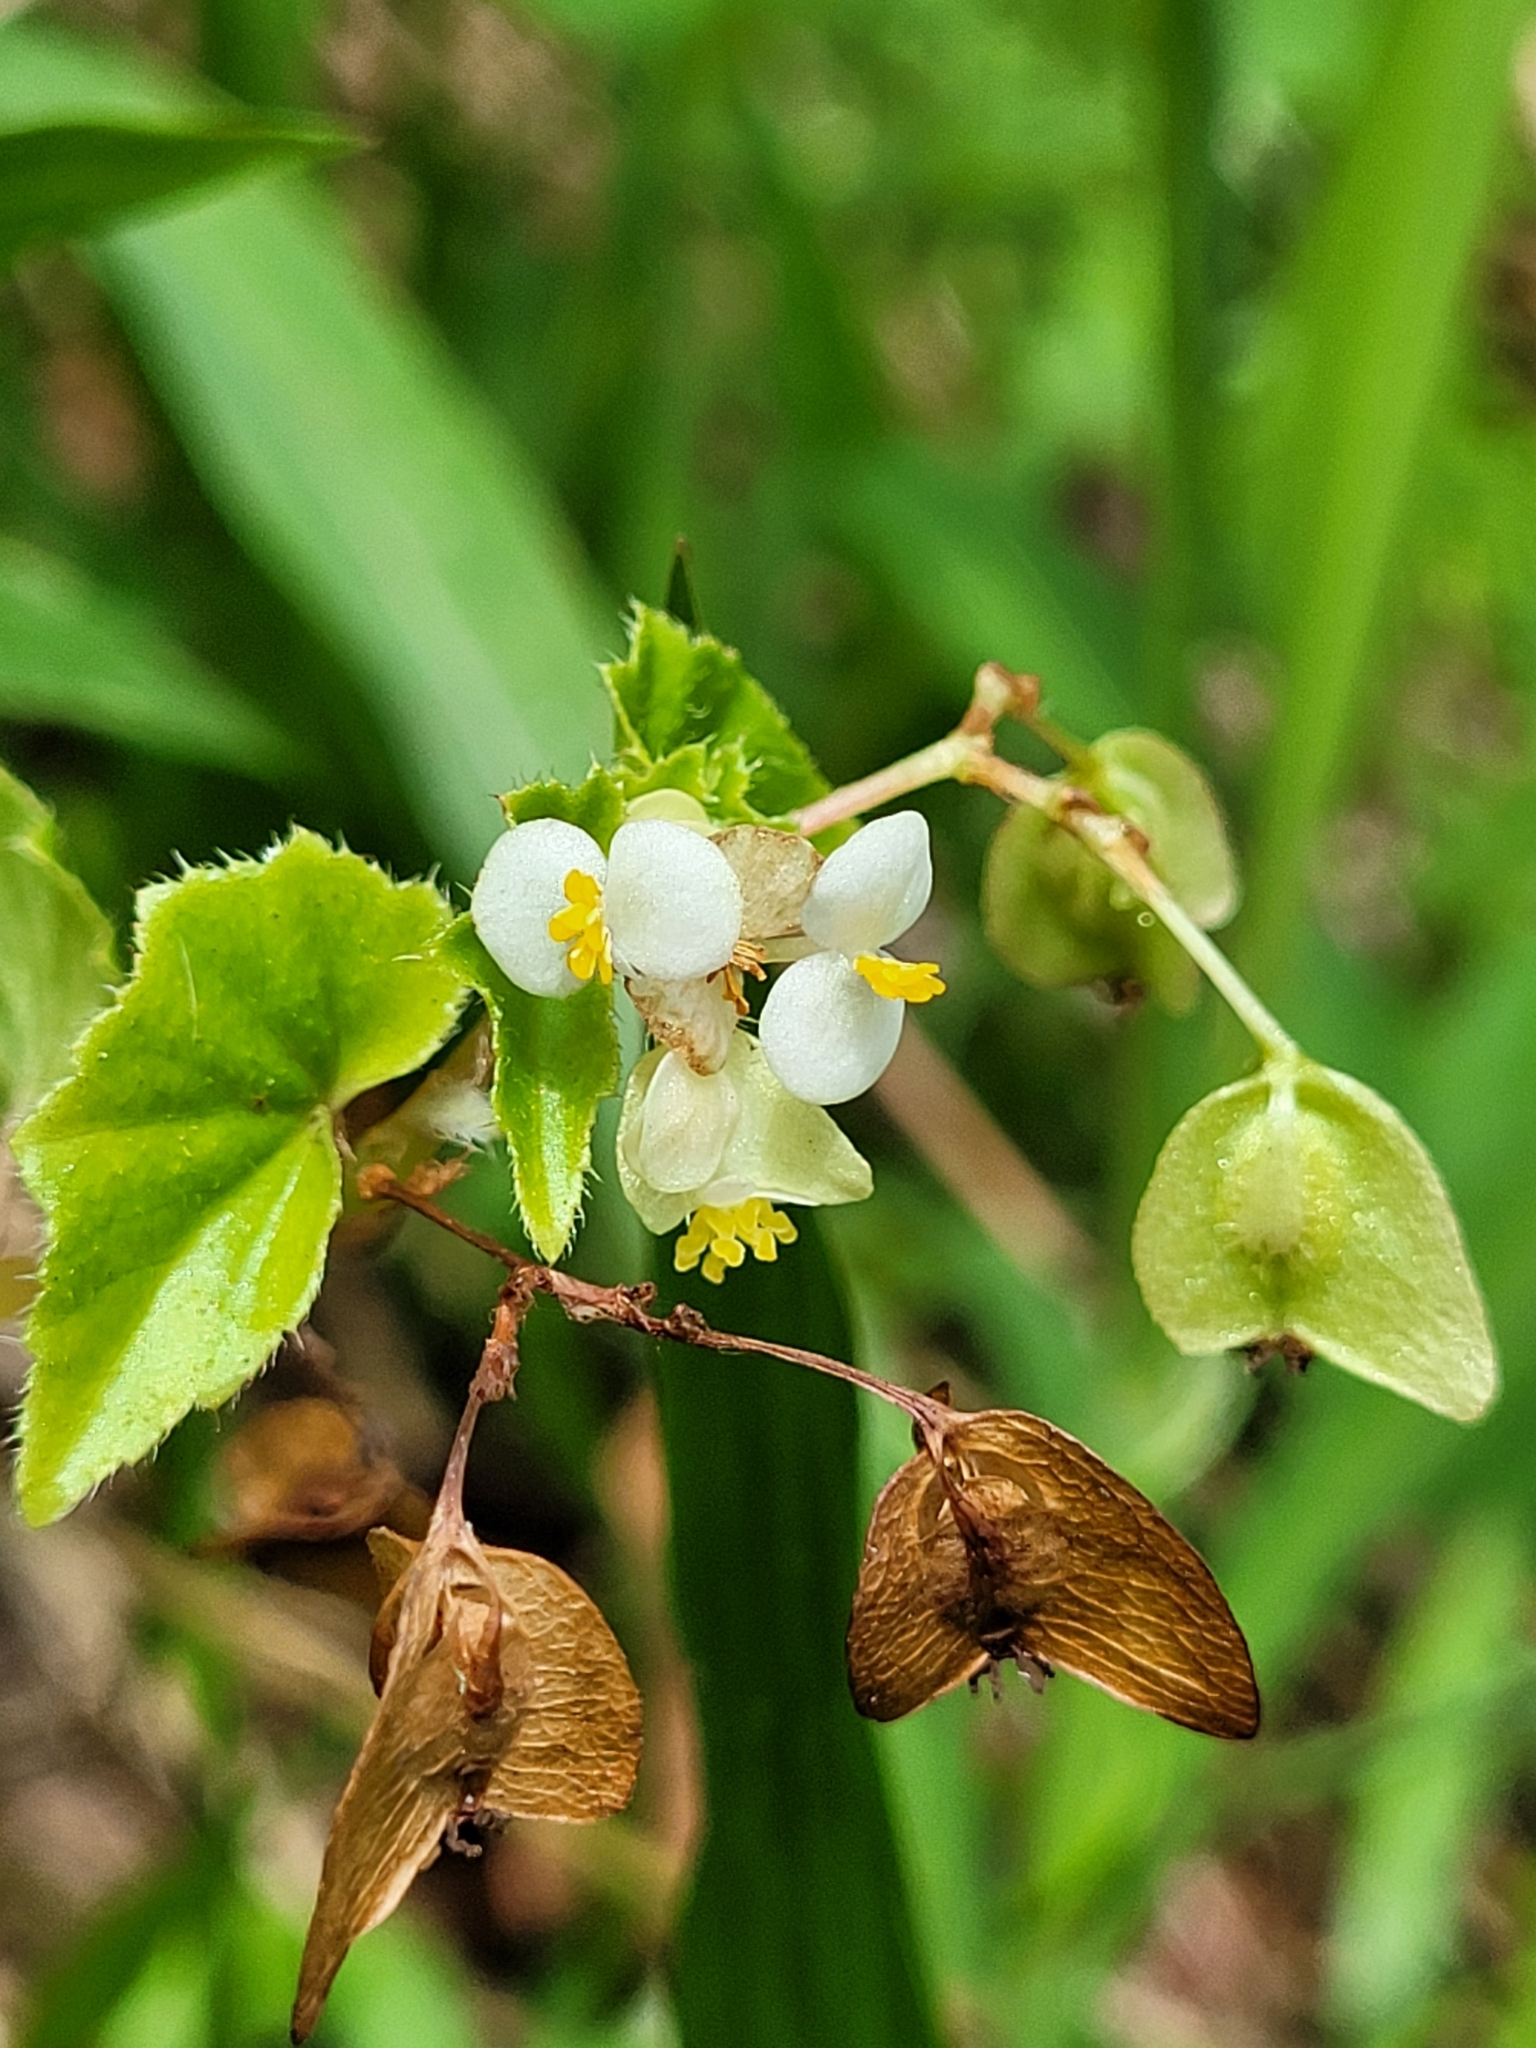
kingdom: Plantae
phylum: Tracheophyta
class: Magnoliopsida
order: Cucurbitales
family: Begoniaceae
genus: Begonia
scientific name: Begonia hirtella
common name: Brazilian begonia
